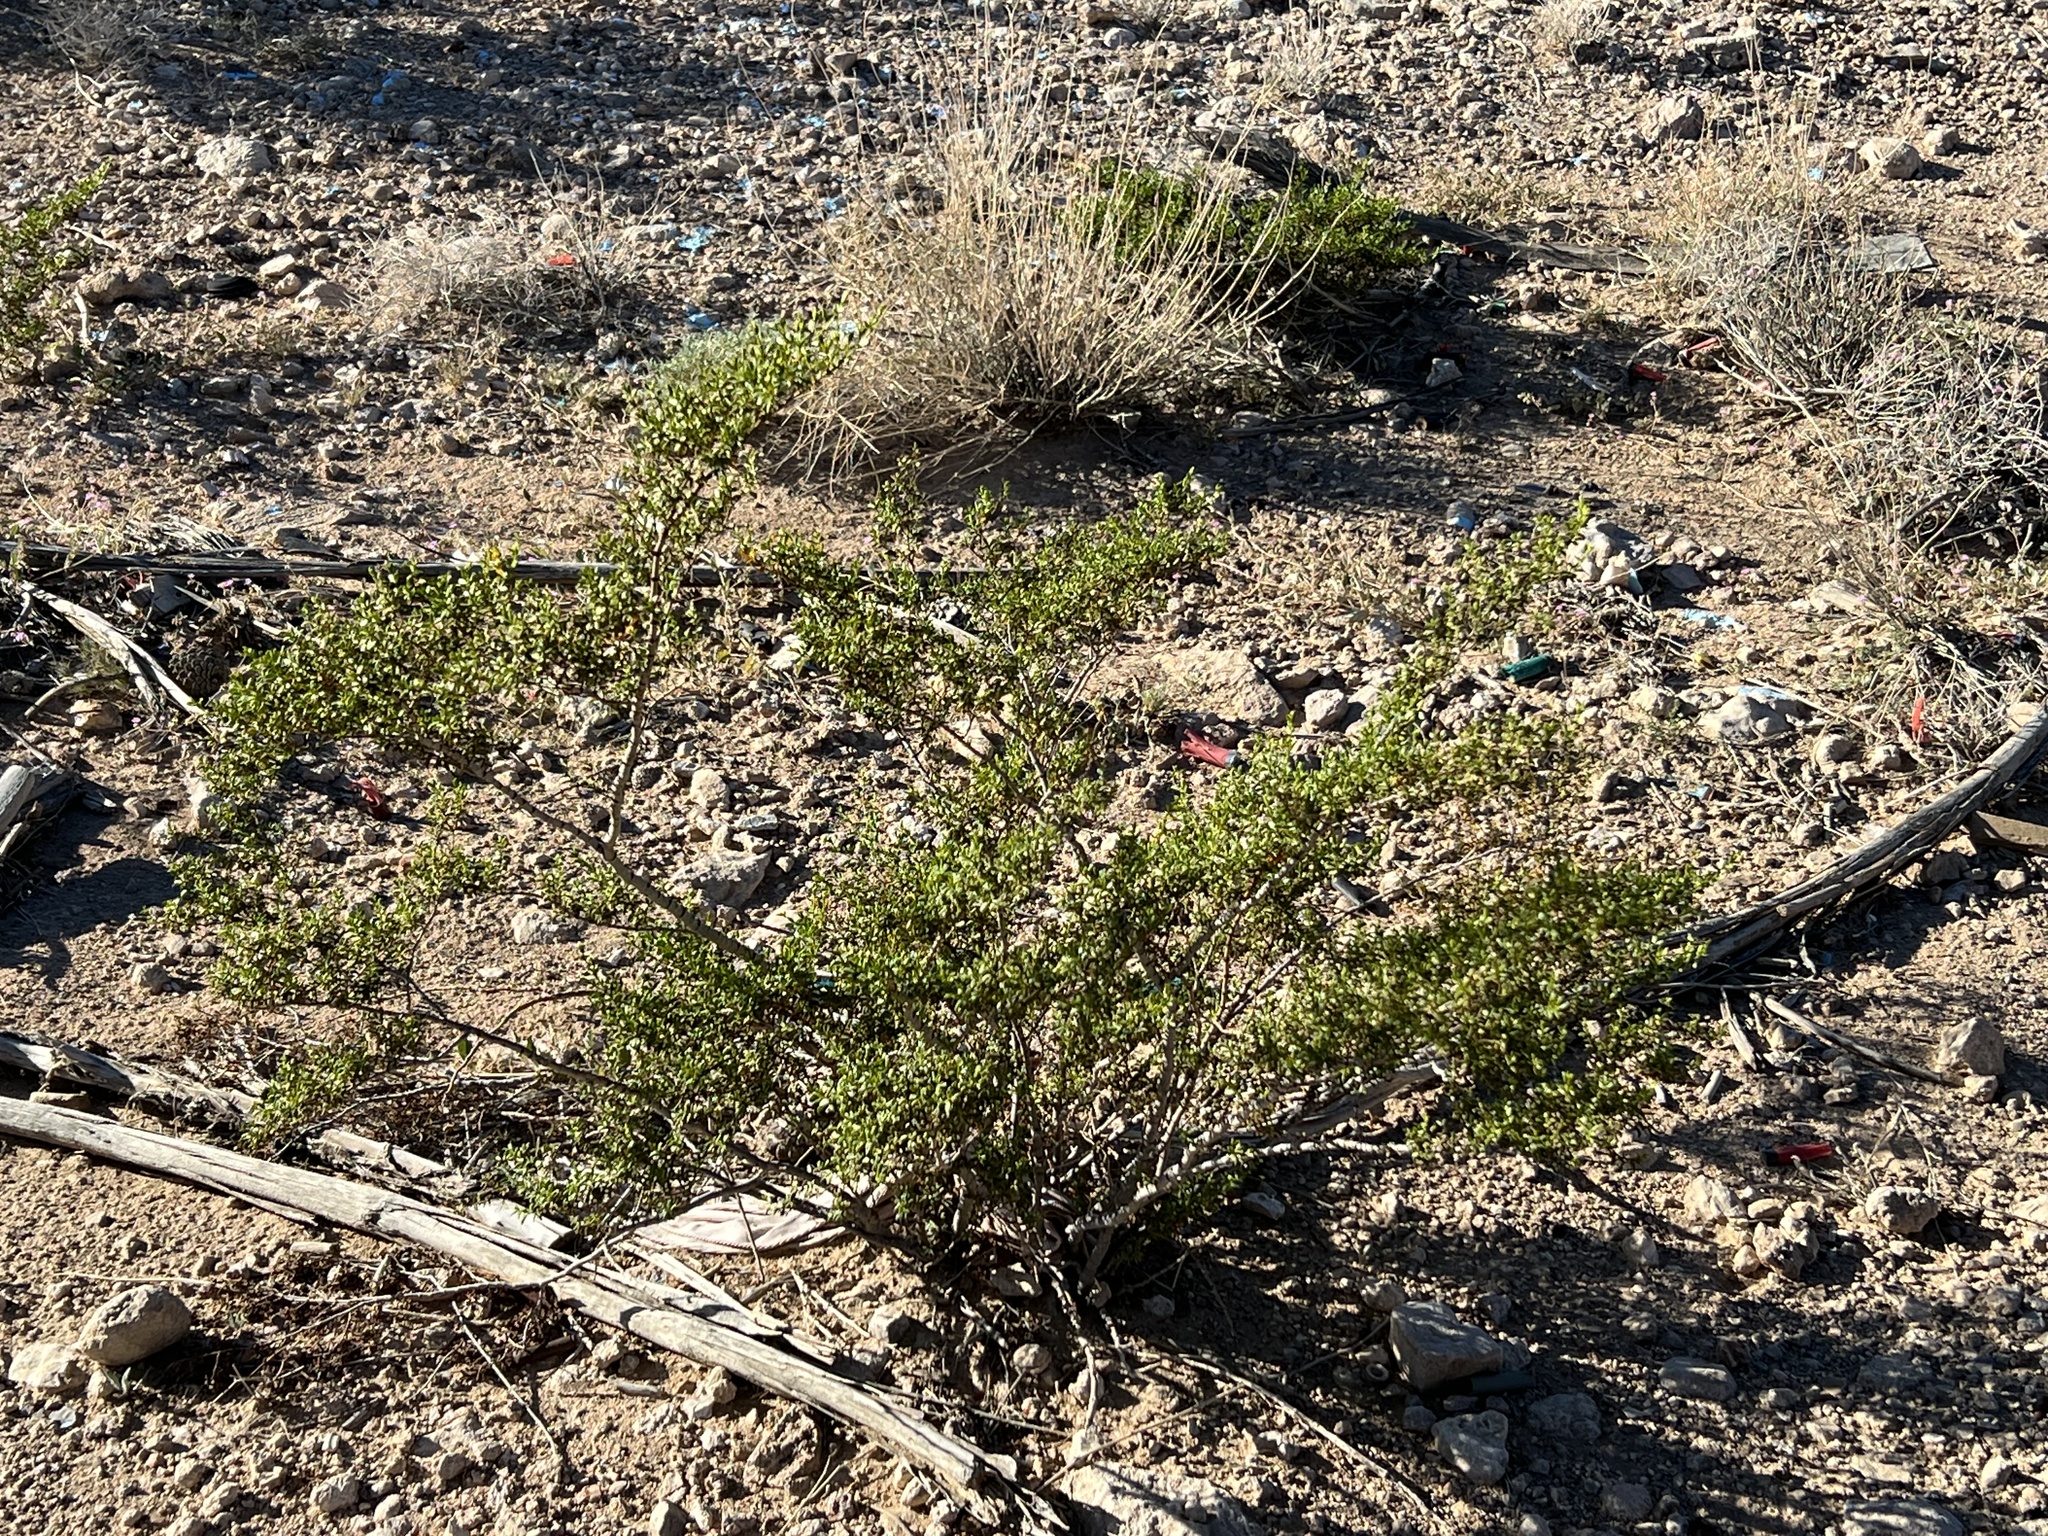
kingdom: Plantae
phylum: Tracheophyta
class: Magnoliopsida
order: Zygophyllales
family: Zygophyllaceae
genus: Larrea
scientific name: Larrea tridentata
